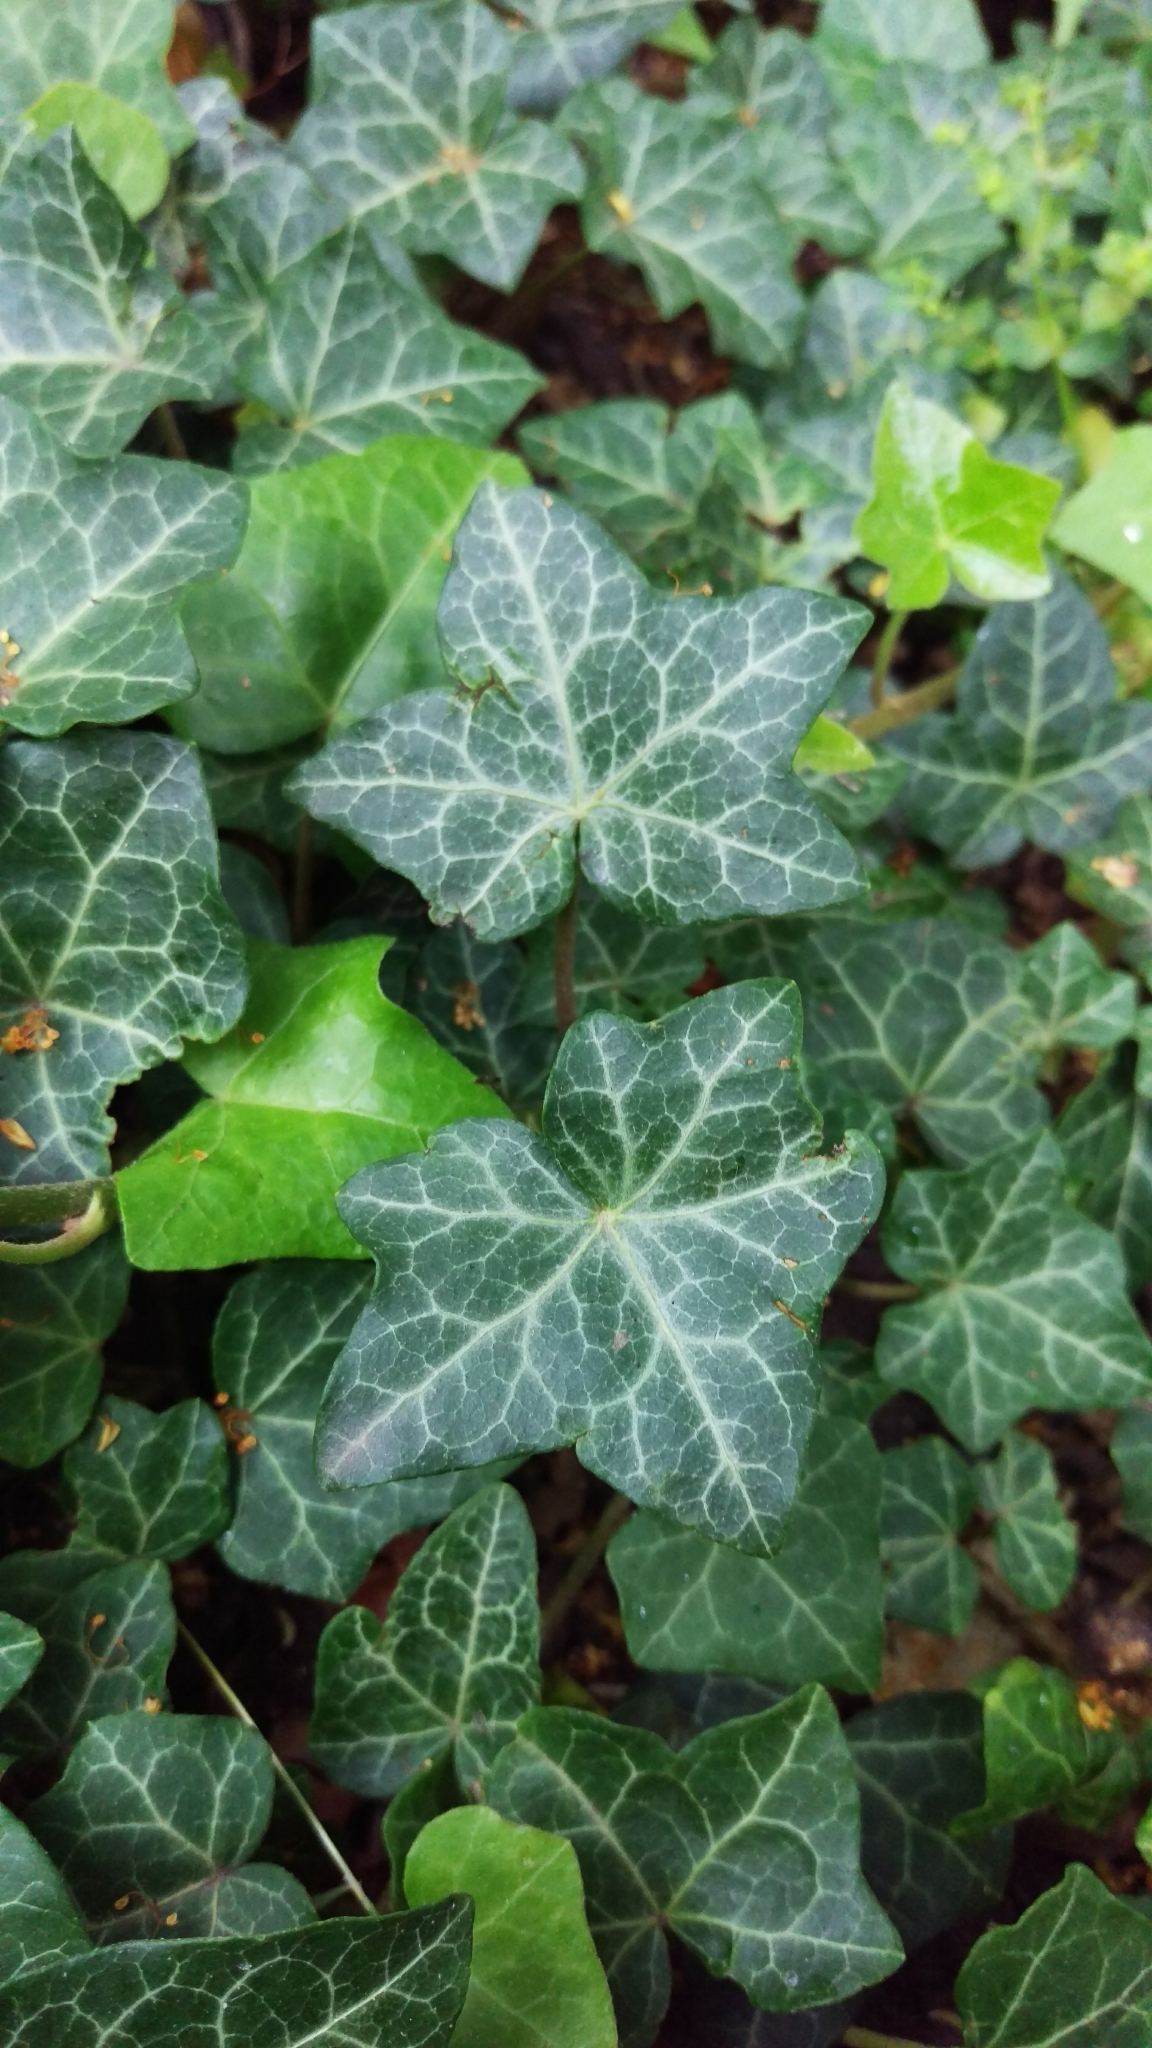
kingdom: Plantae
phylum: Tracheophyta
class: Magnoliopsida
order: Apiales
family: Araliaceae
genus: Hedera
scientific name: Hedera helix
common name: Ivy
